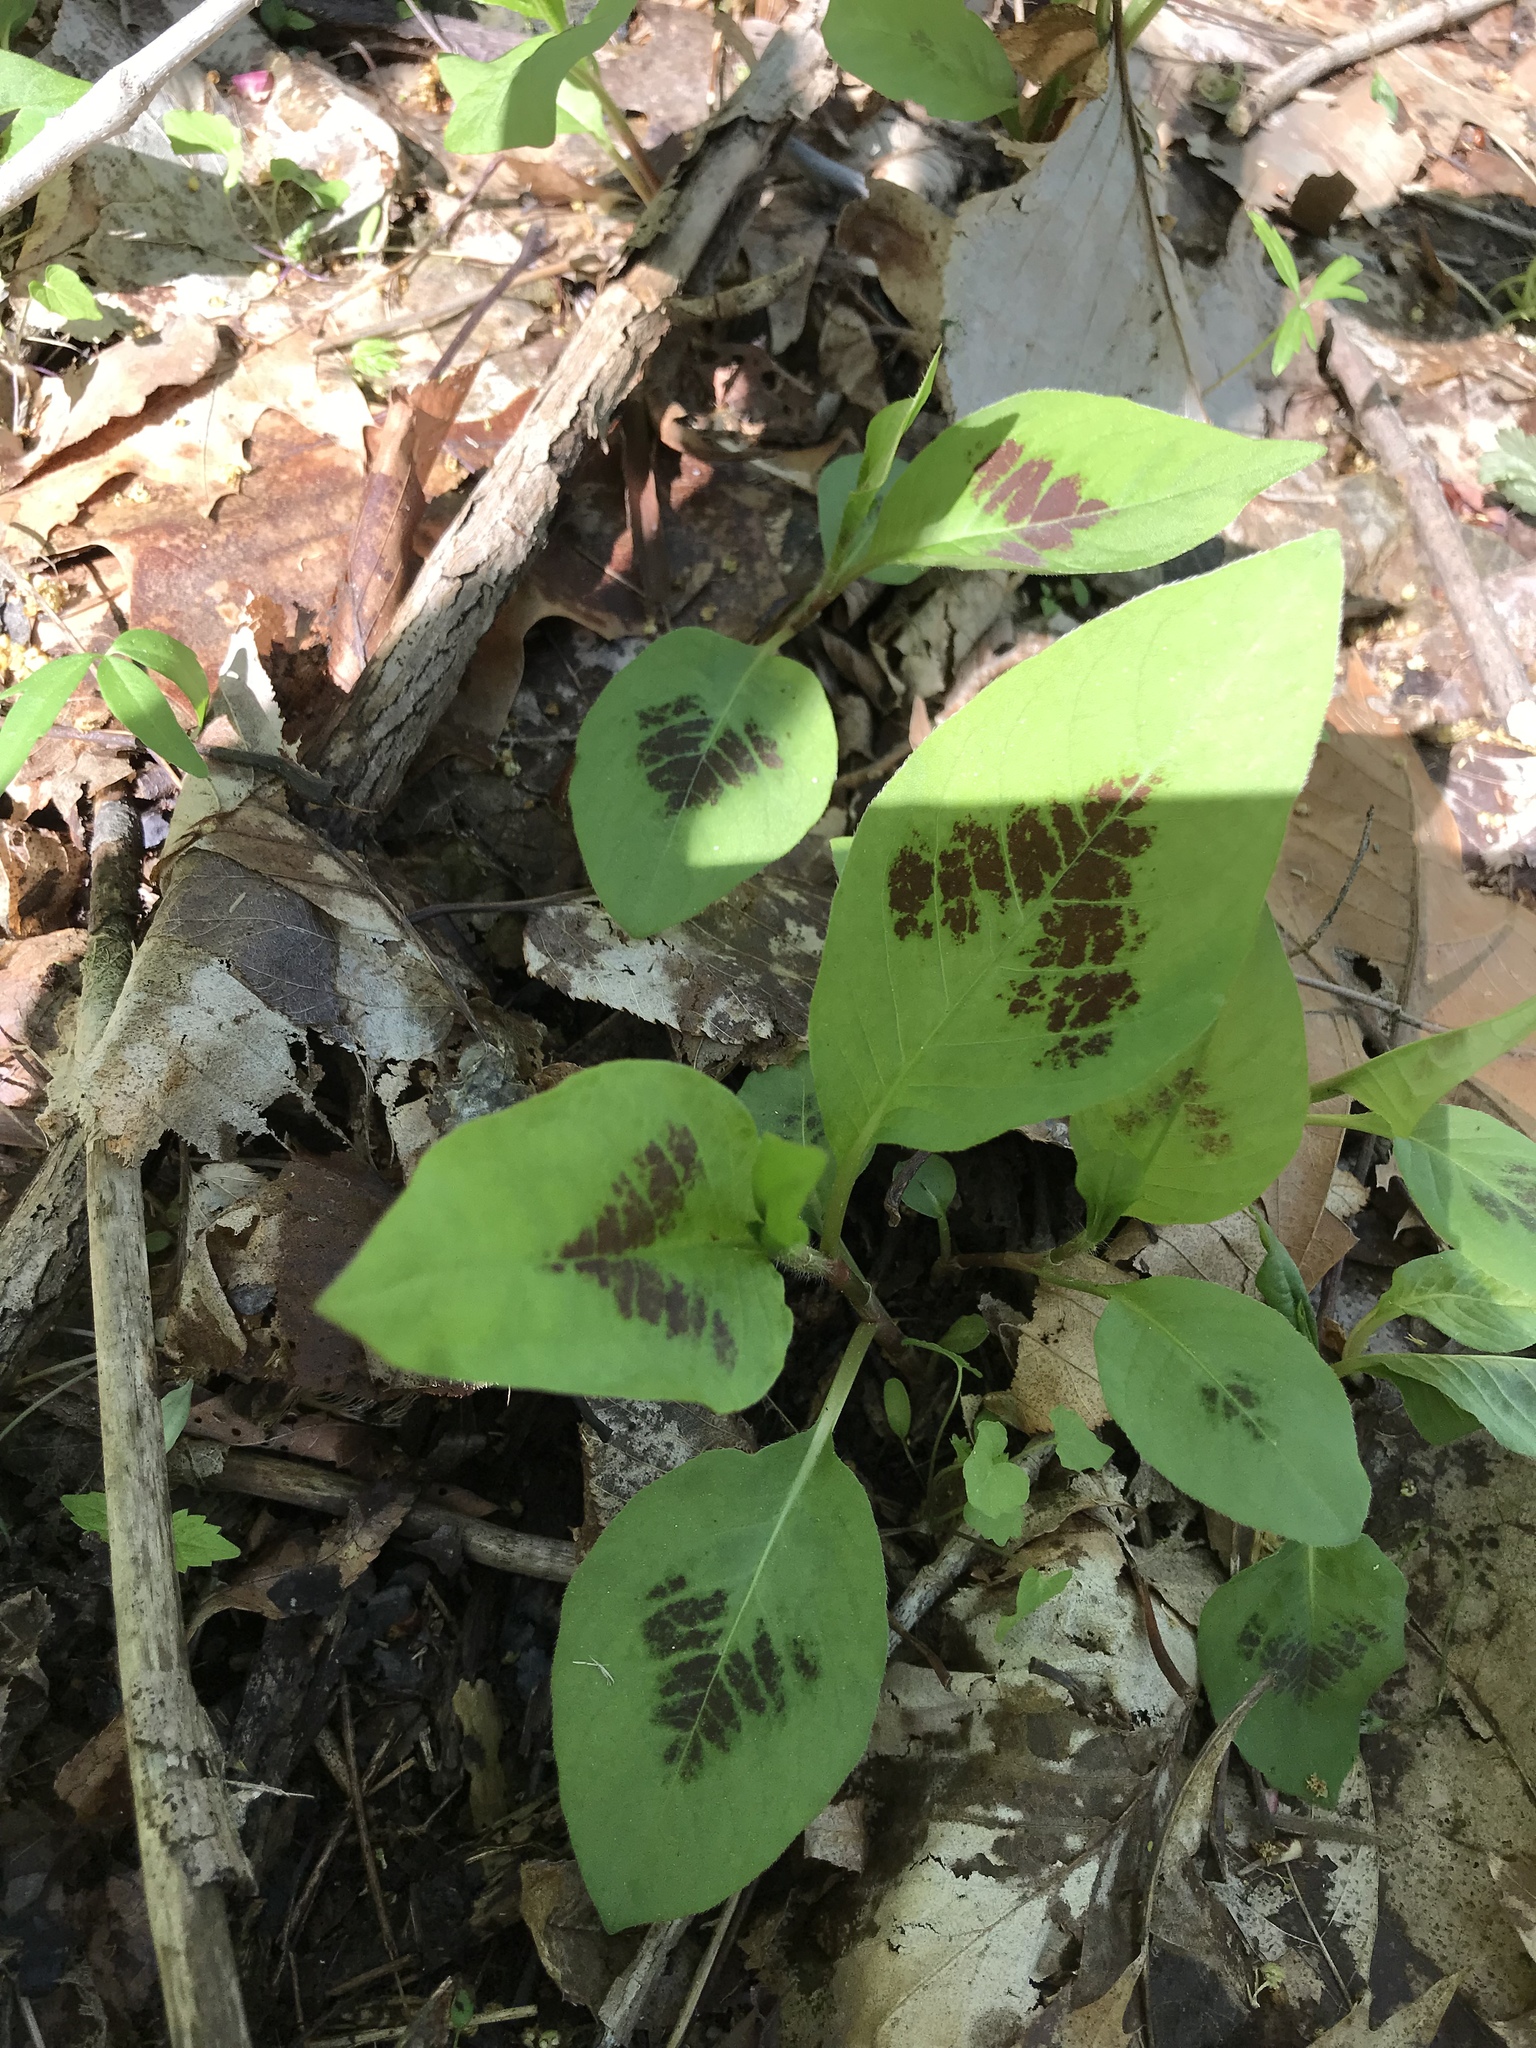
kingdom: Plantae
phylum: Tracheophyta
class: Magnoliopsida
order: Caryophyllales
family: Polygonaceae
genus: Persicaria
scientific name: Persicaria virginiana
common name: Jumpseed
